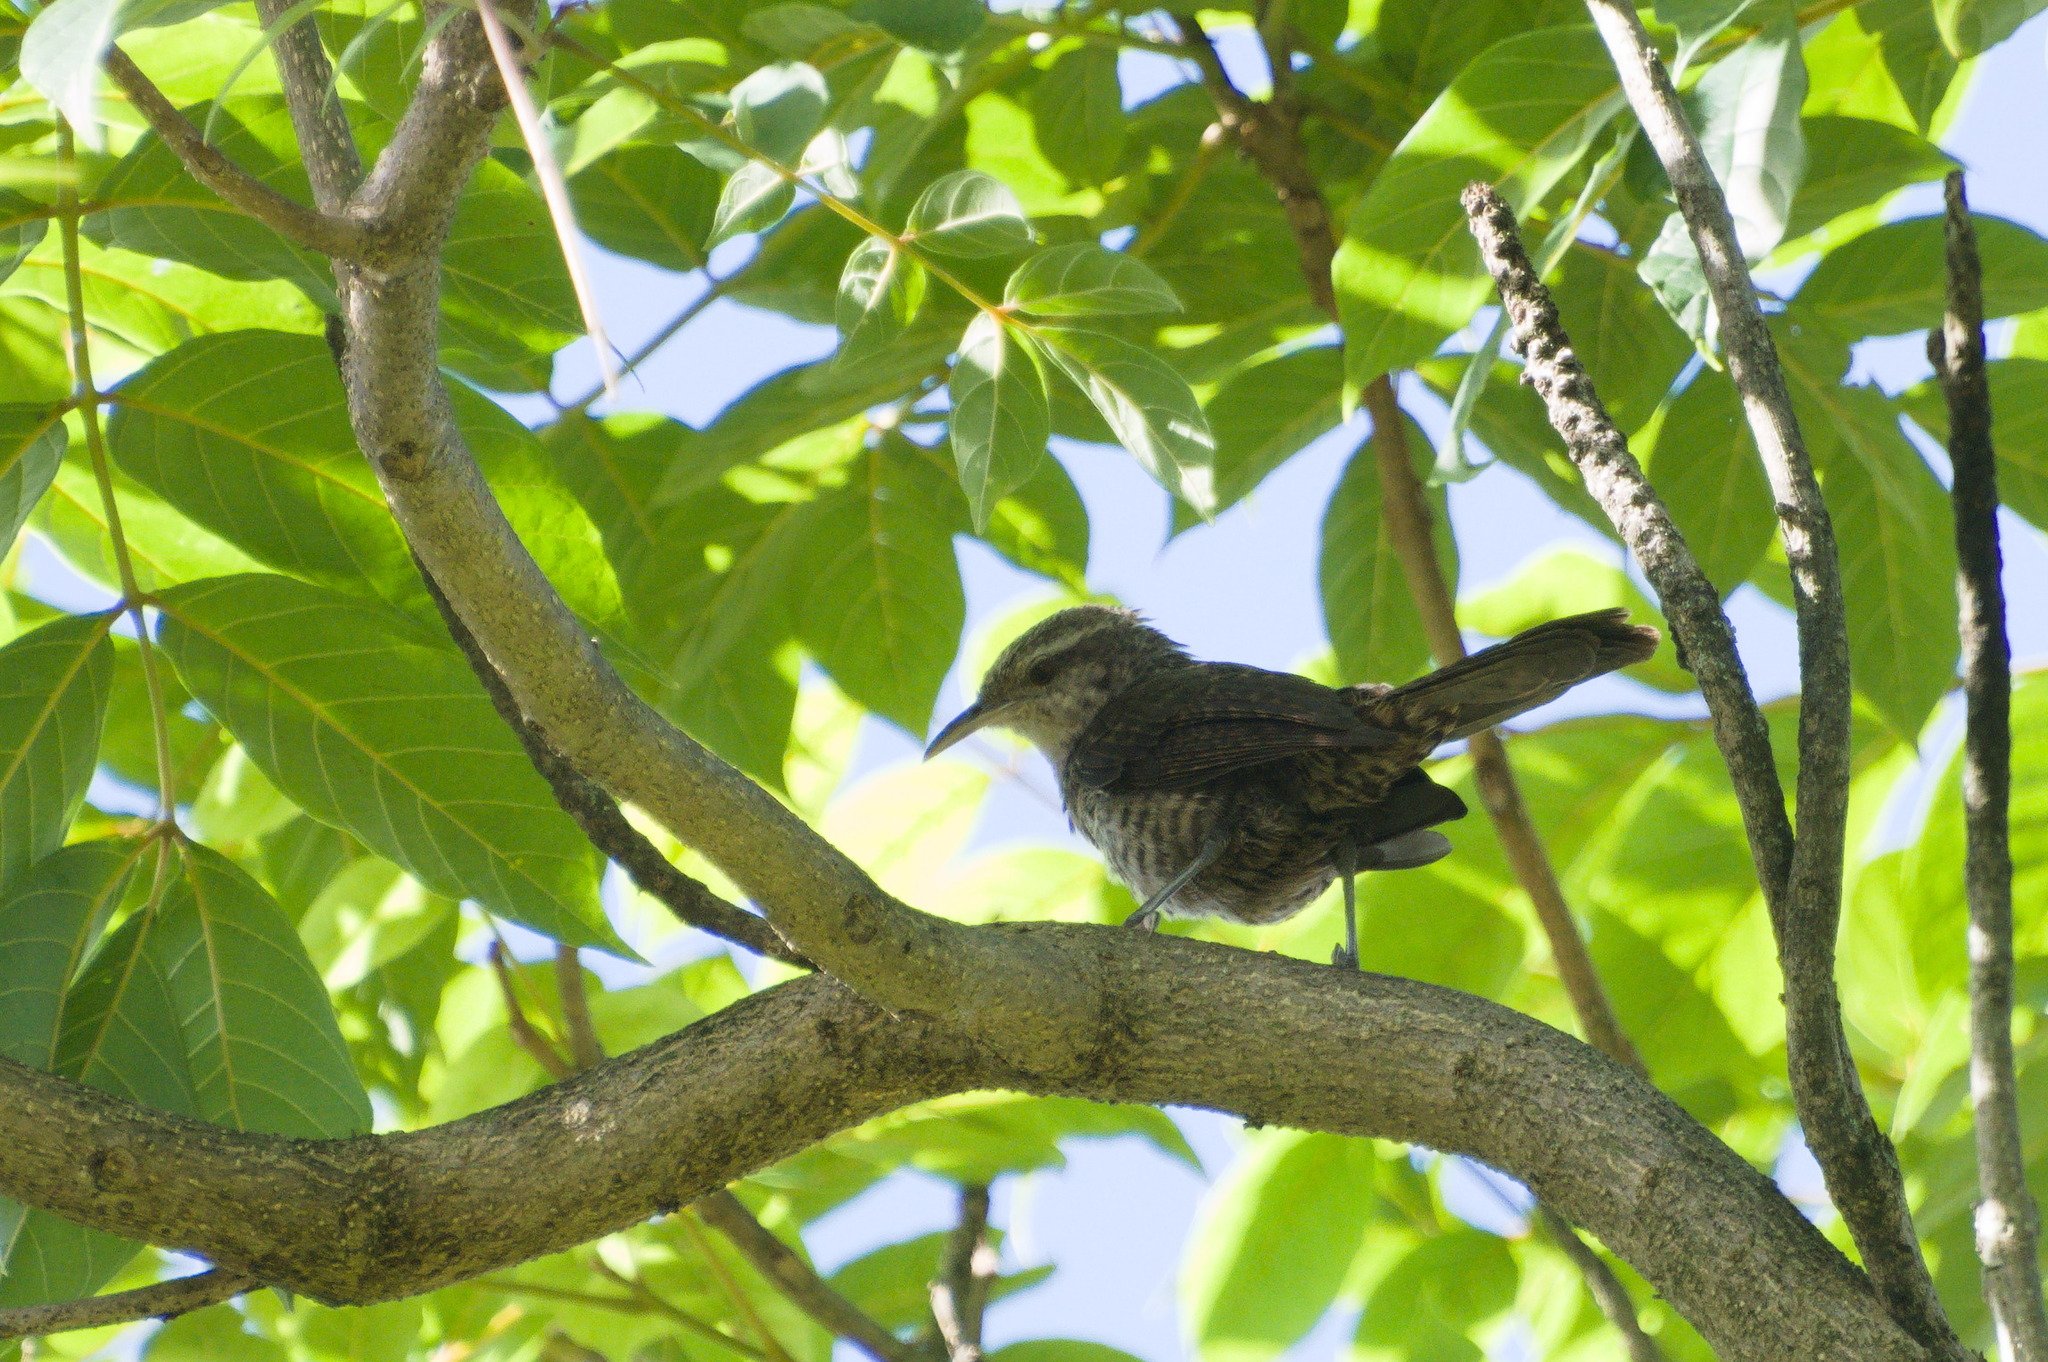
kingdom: Animalia
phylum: Chordata
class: Aves
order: Passeriformes
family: Troglodytidae
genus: Campylorhynchus
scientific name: Campylorhynchus turdinus
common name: Thrush-like wren
